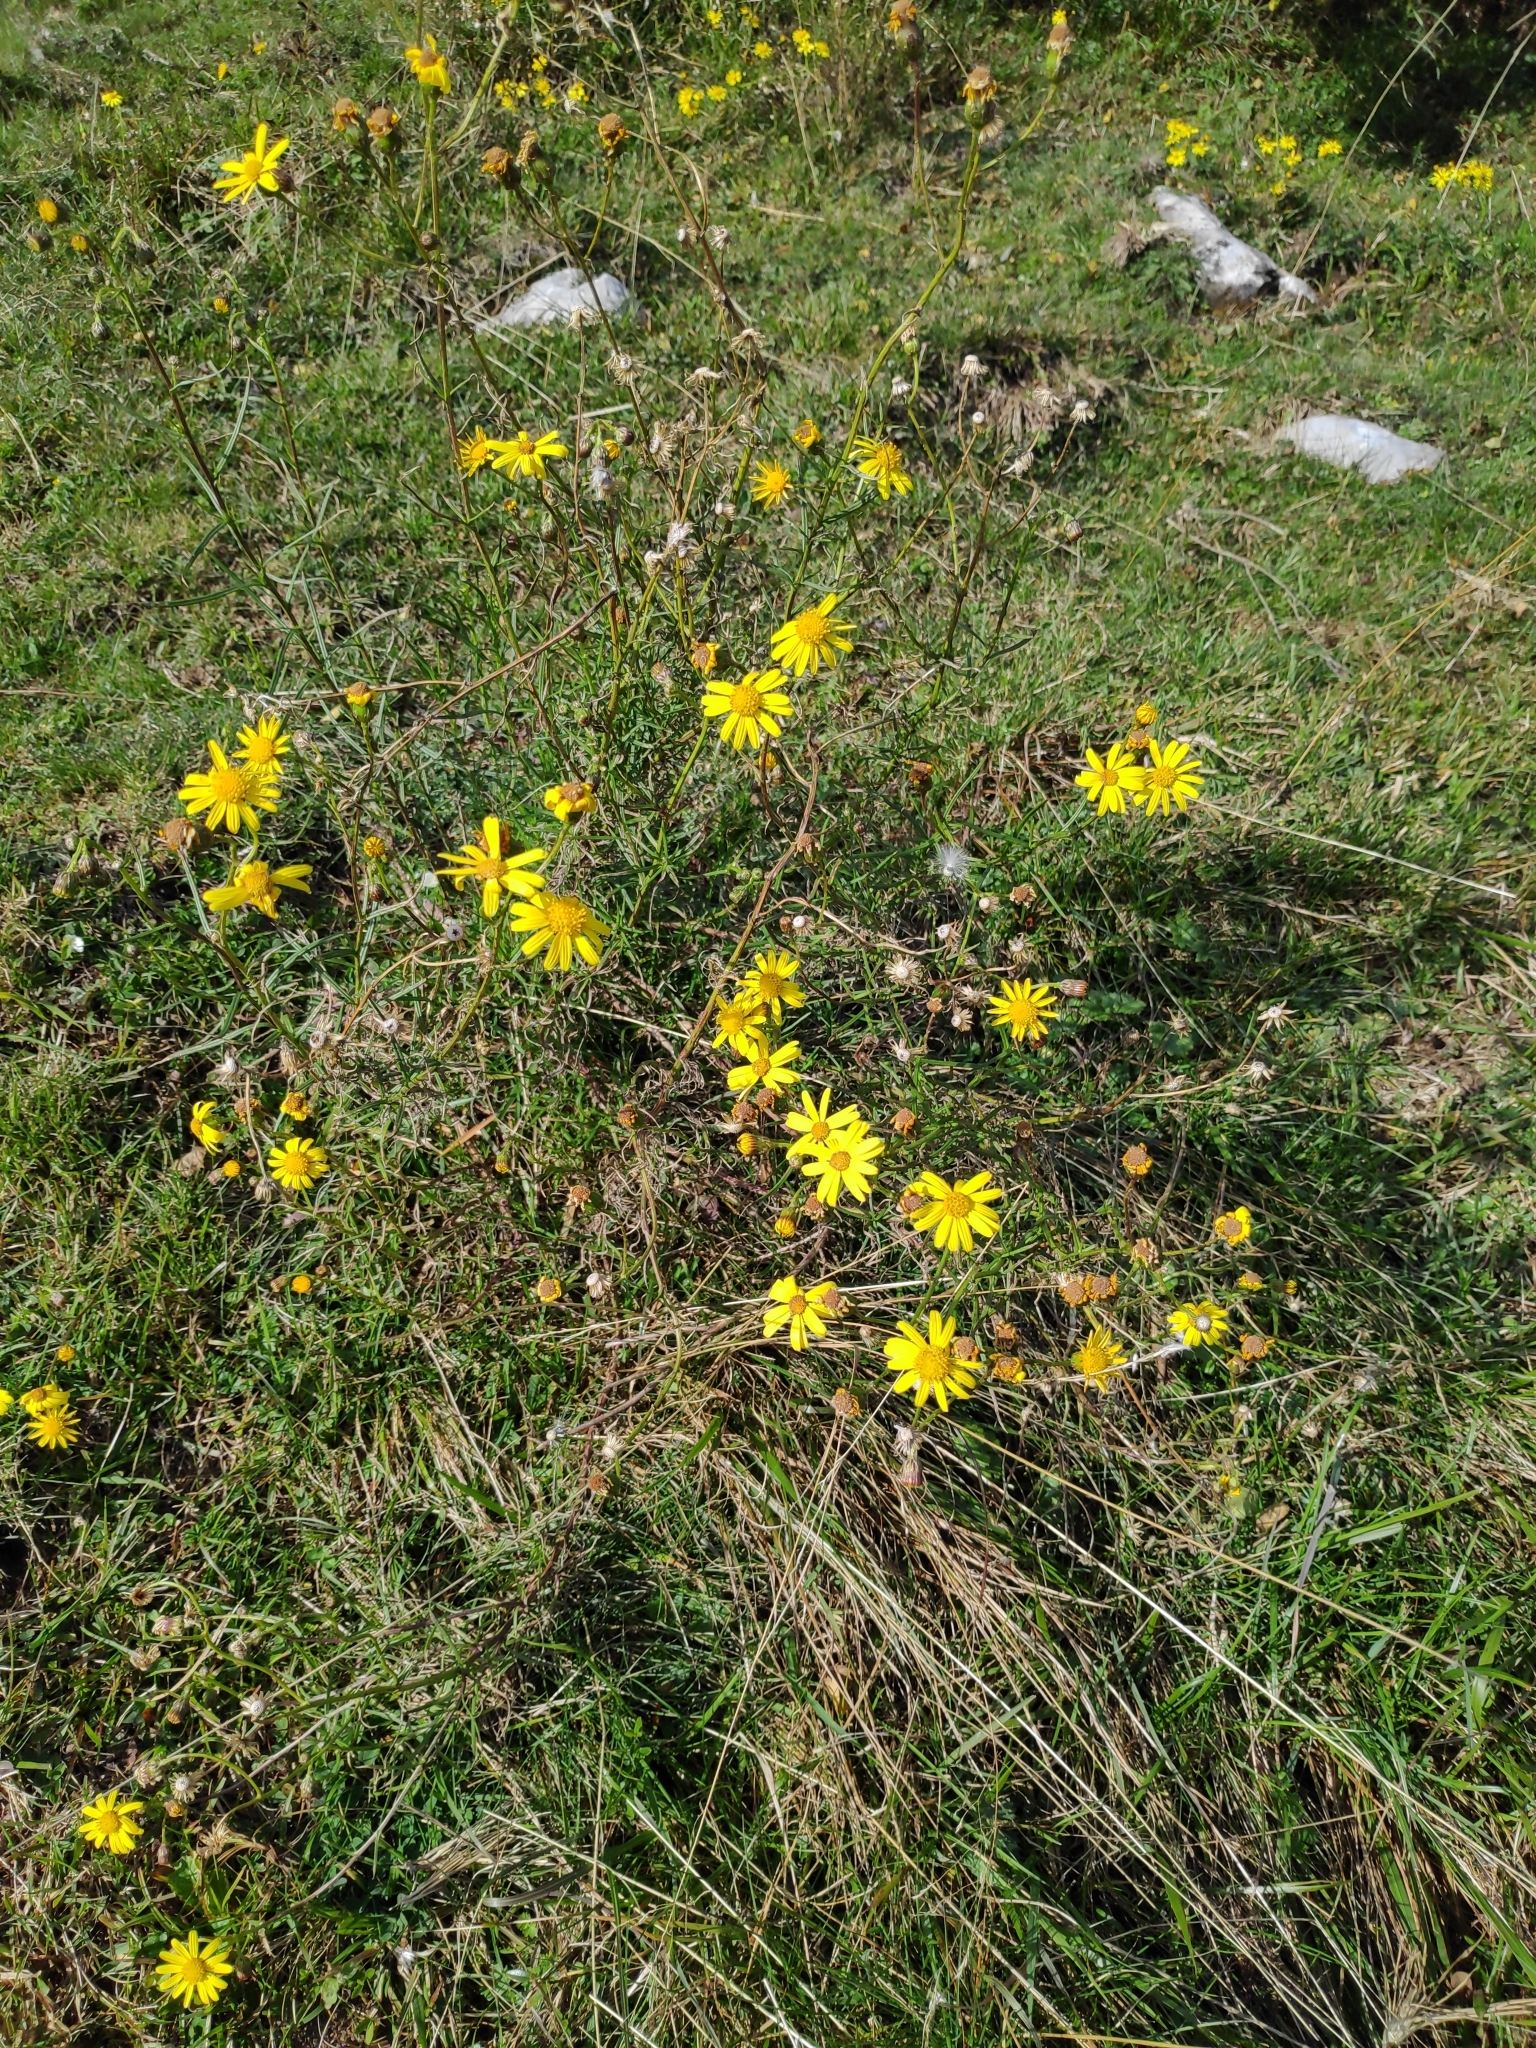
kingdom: Plantae
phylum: Tracheophyta
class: Magnoliopsida
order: Asterales
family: Asteraceae
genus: Senecio
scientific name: Senecio inaequidens
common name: Narrow-leaved ragwort
